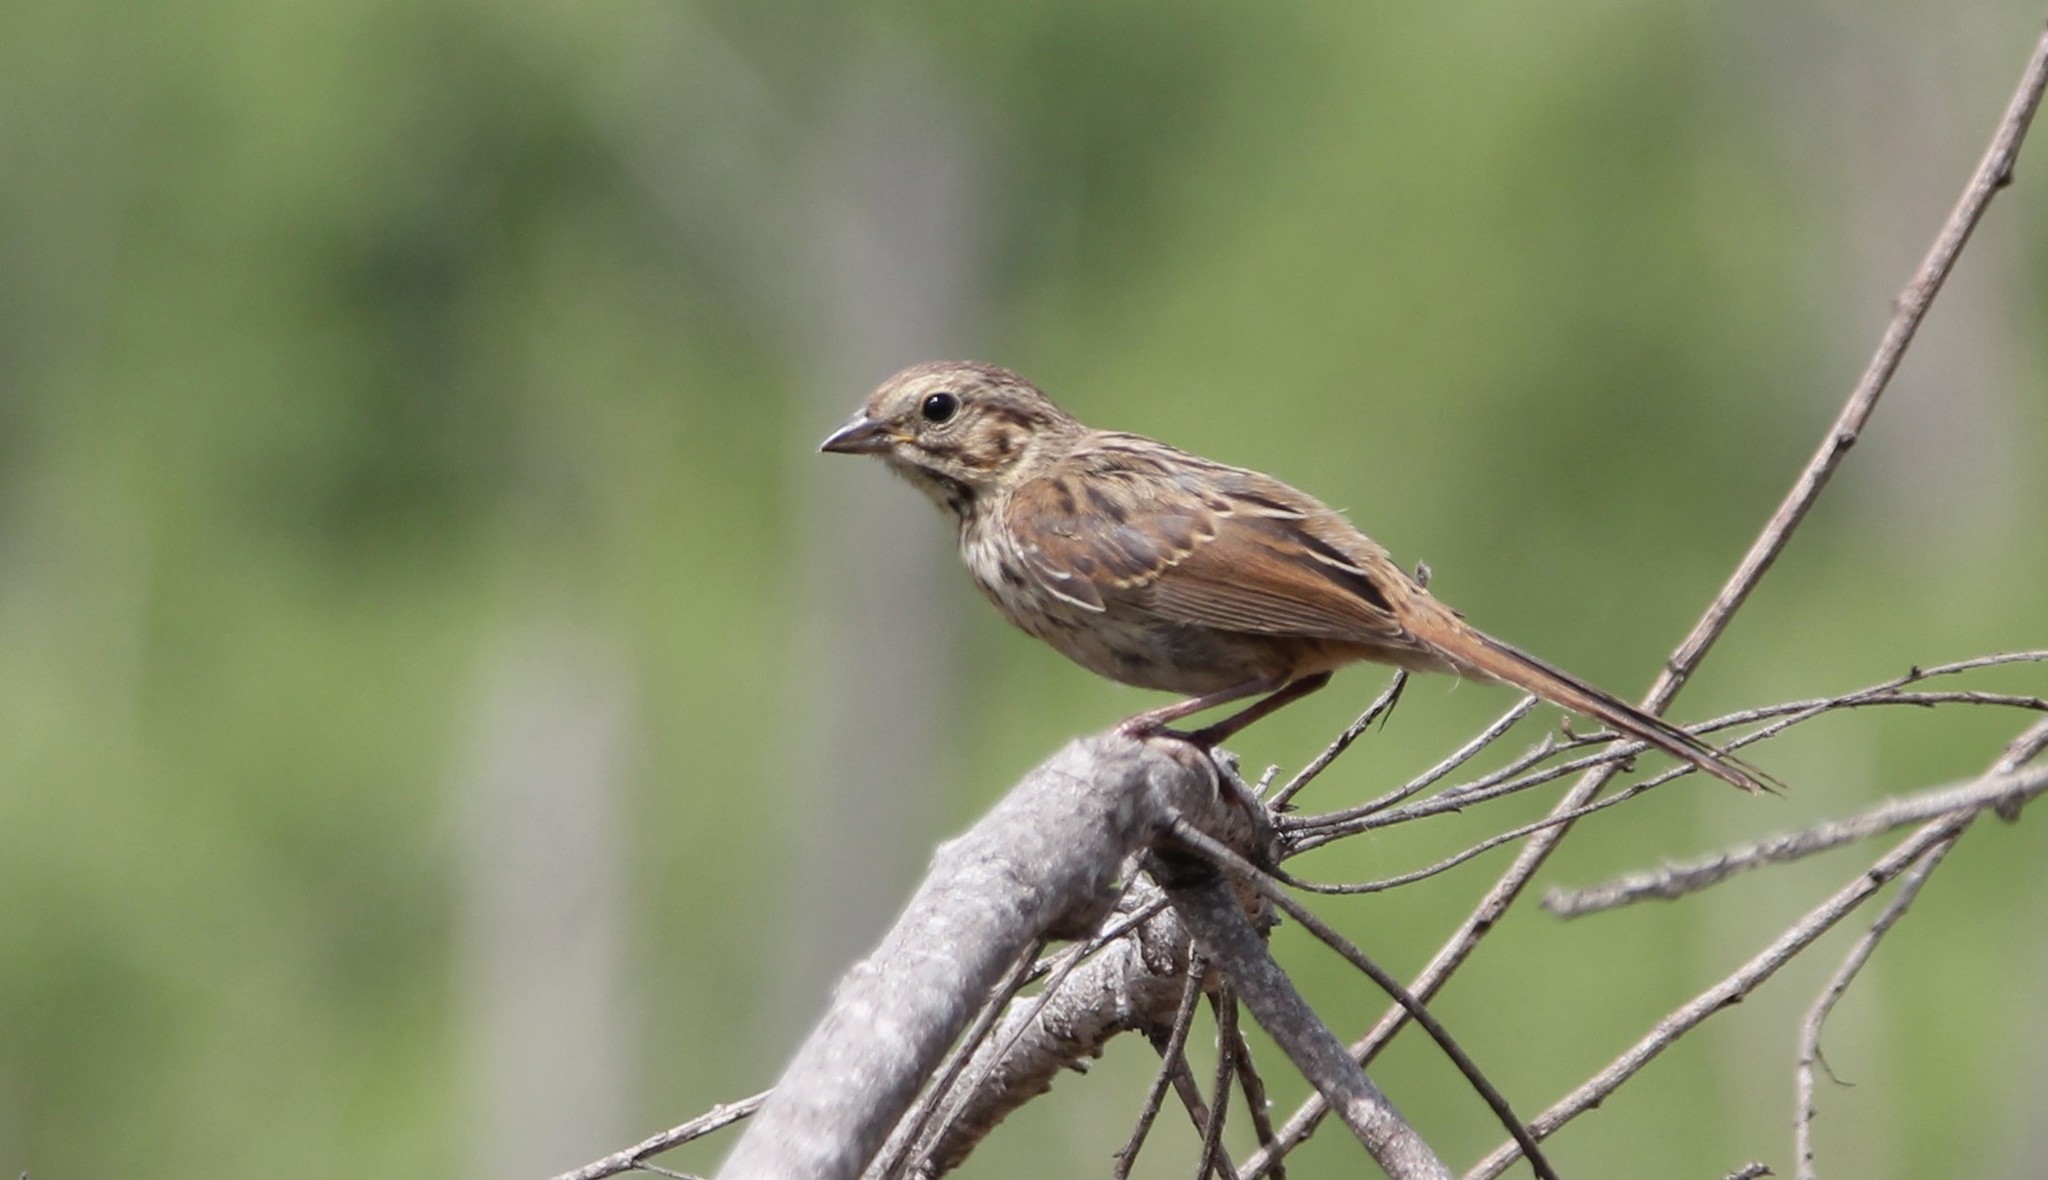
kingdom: Animalia
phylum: Chordata
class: Aves
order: Passeriformes
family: Passerellidae
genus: Melospiza
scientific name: Melospiza melodia
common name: Song sparrow
